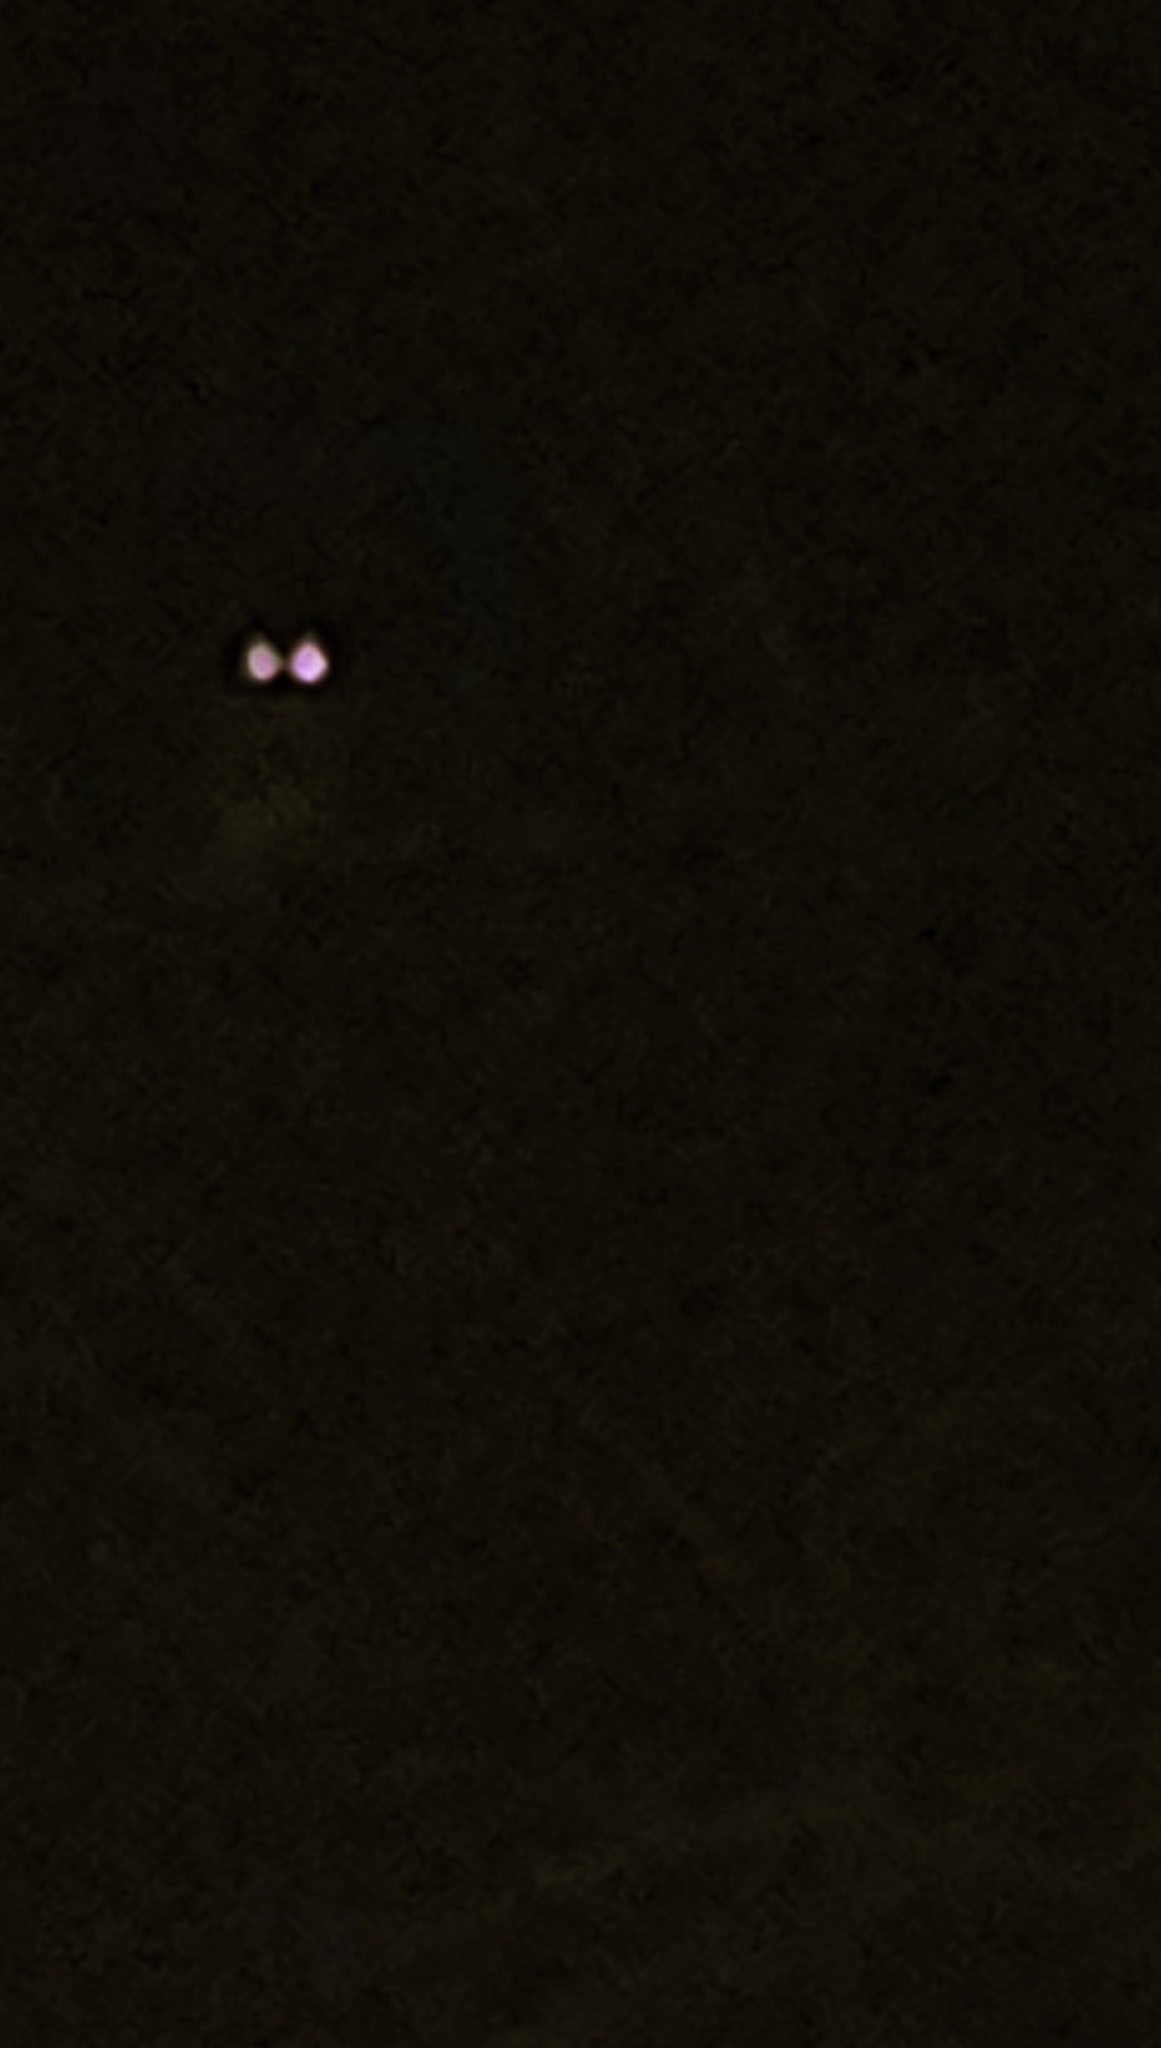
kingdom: Animalia
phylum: Chordata
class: Aves
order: Strigiformes
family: Strigidae
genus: Megascops
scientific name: Megascops asio
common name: Eastern screech-owl
